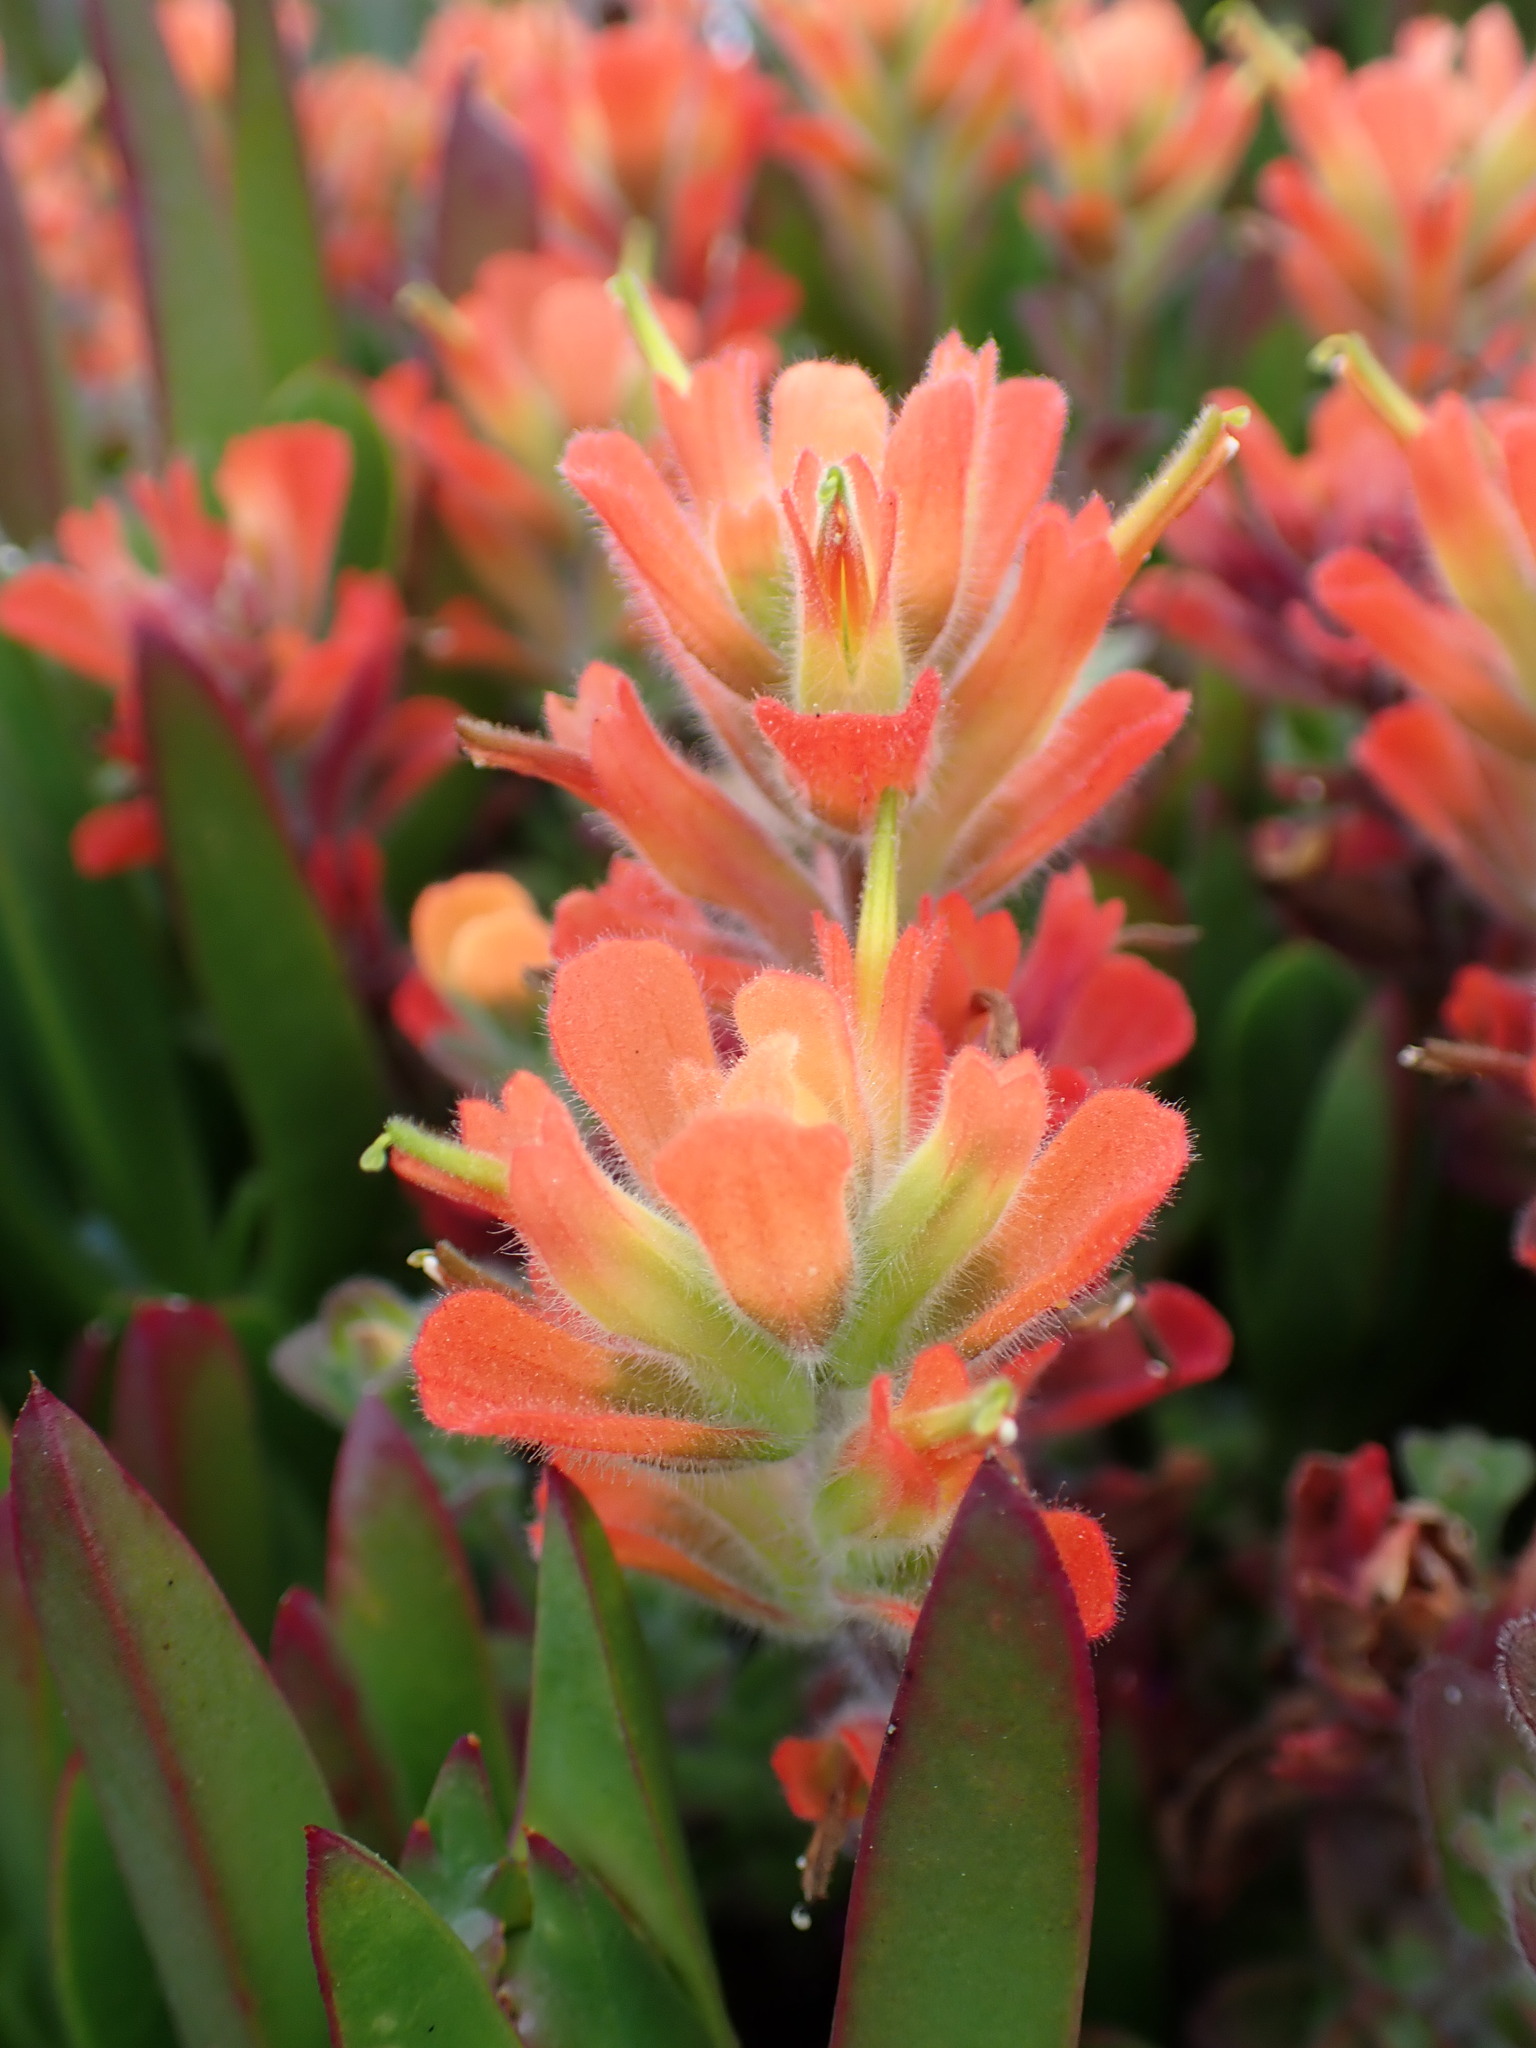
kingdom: Plantae
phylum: Tracheophyta
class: Magnoliopsida
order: Lamiales
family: Orobanchaceae
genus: Castilleja
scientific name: Castilleja latifolia
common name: Monterey indian paintbrush
